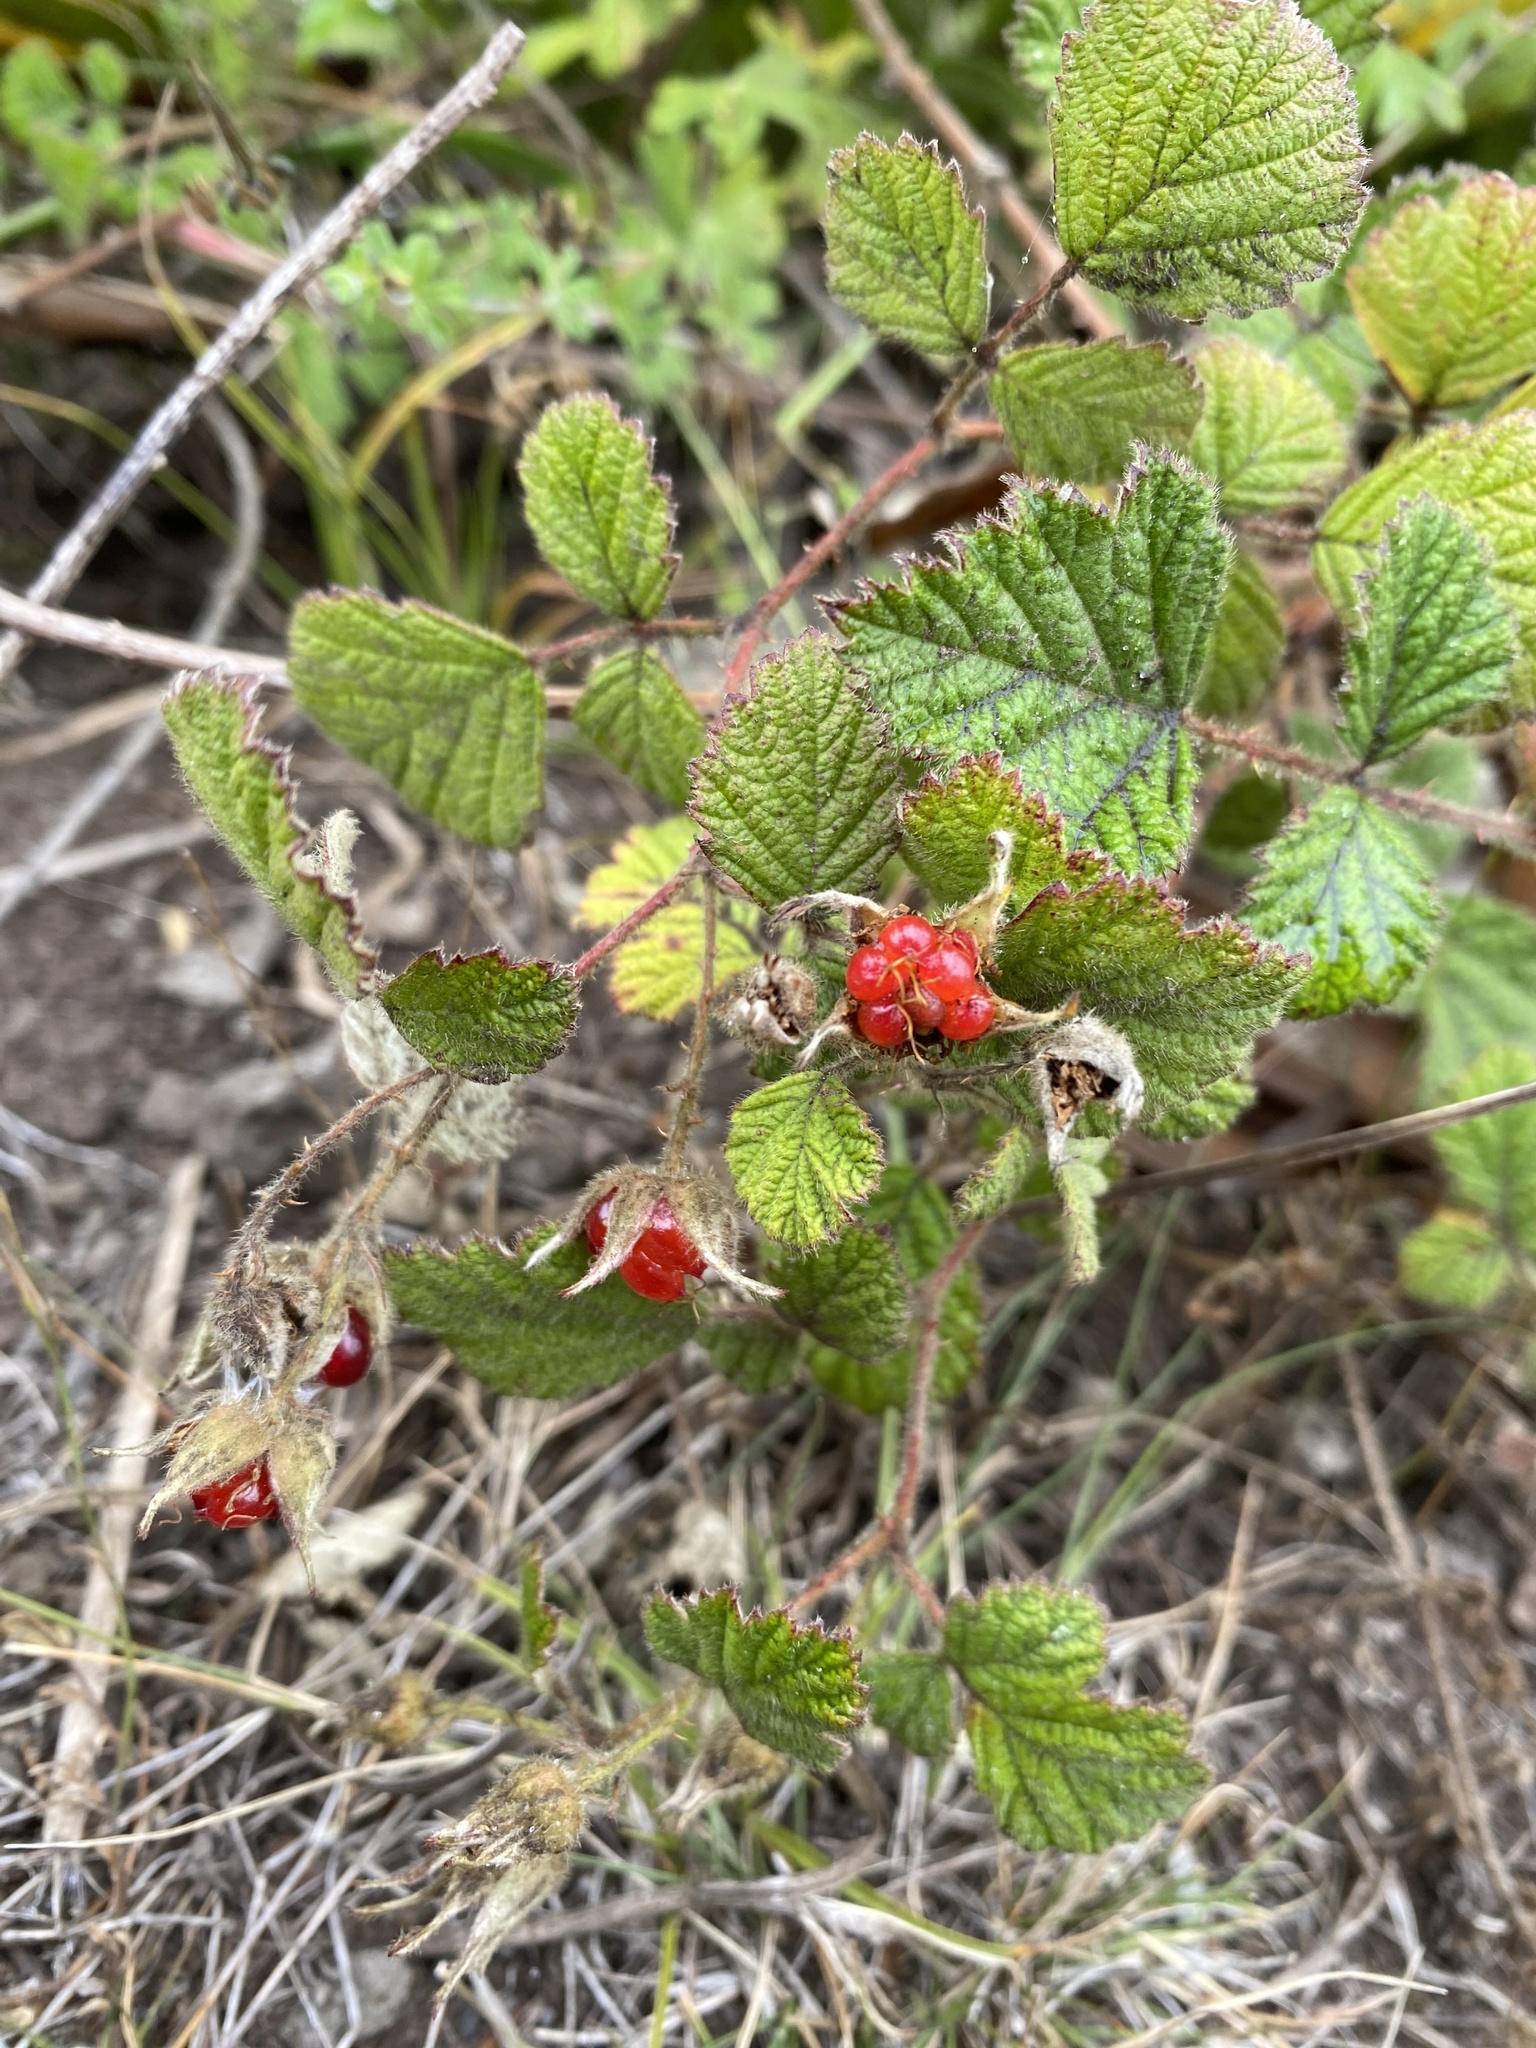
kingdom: Plantae
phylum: Tracheophyta
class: Magnoliopsida
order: Rosales
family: Rosaceae
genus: Rubus
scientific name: Rubus parvifolius
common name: Threeleaf blackberry
